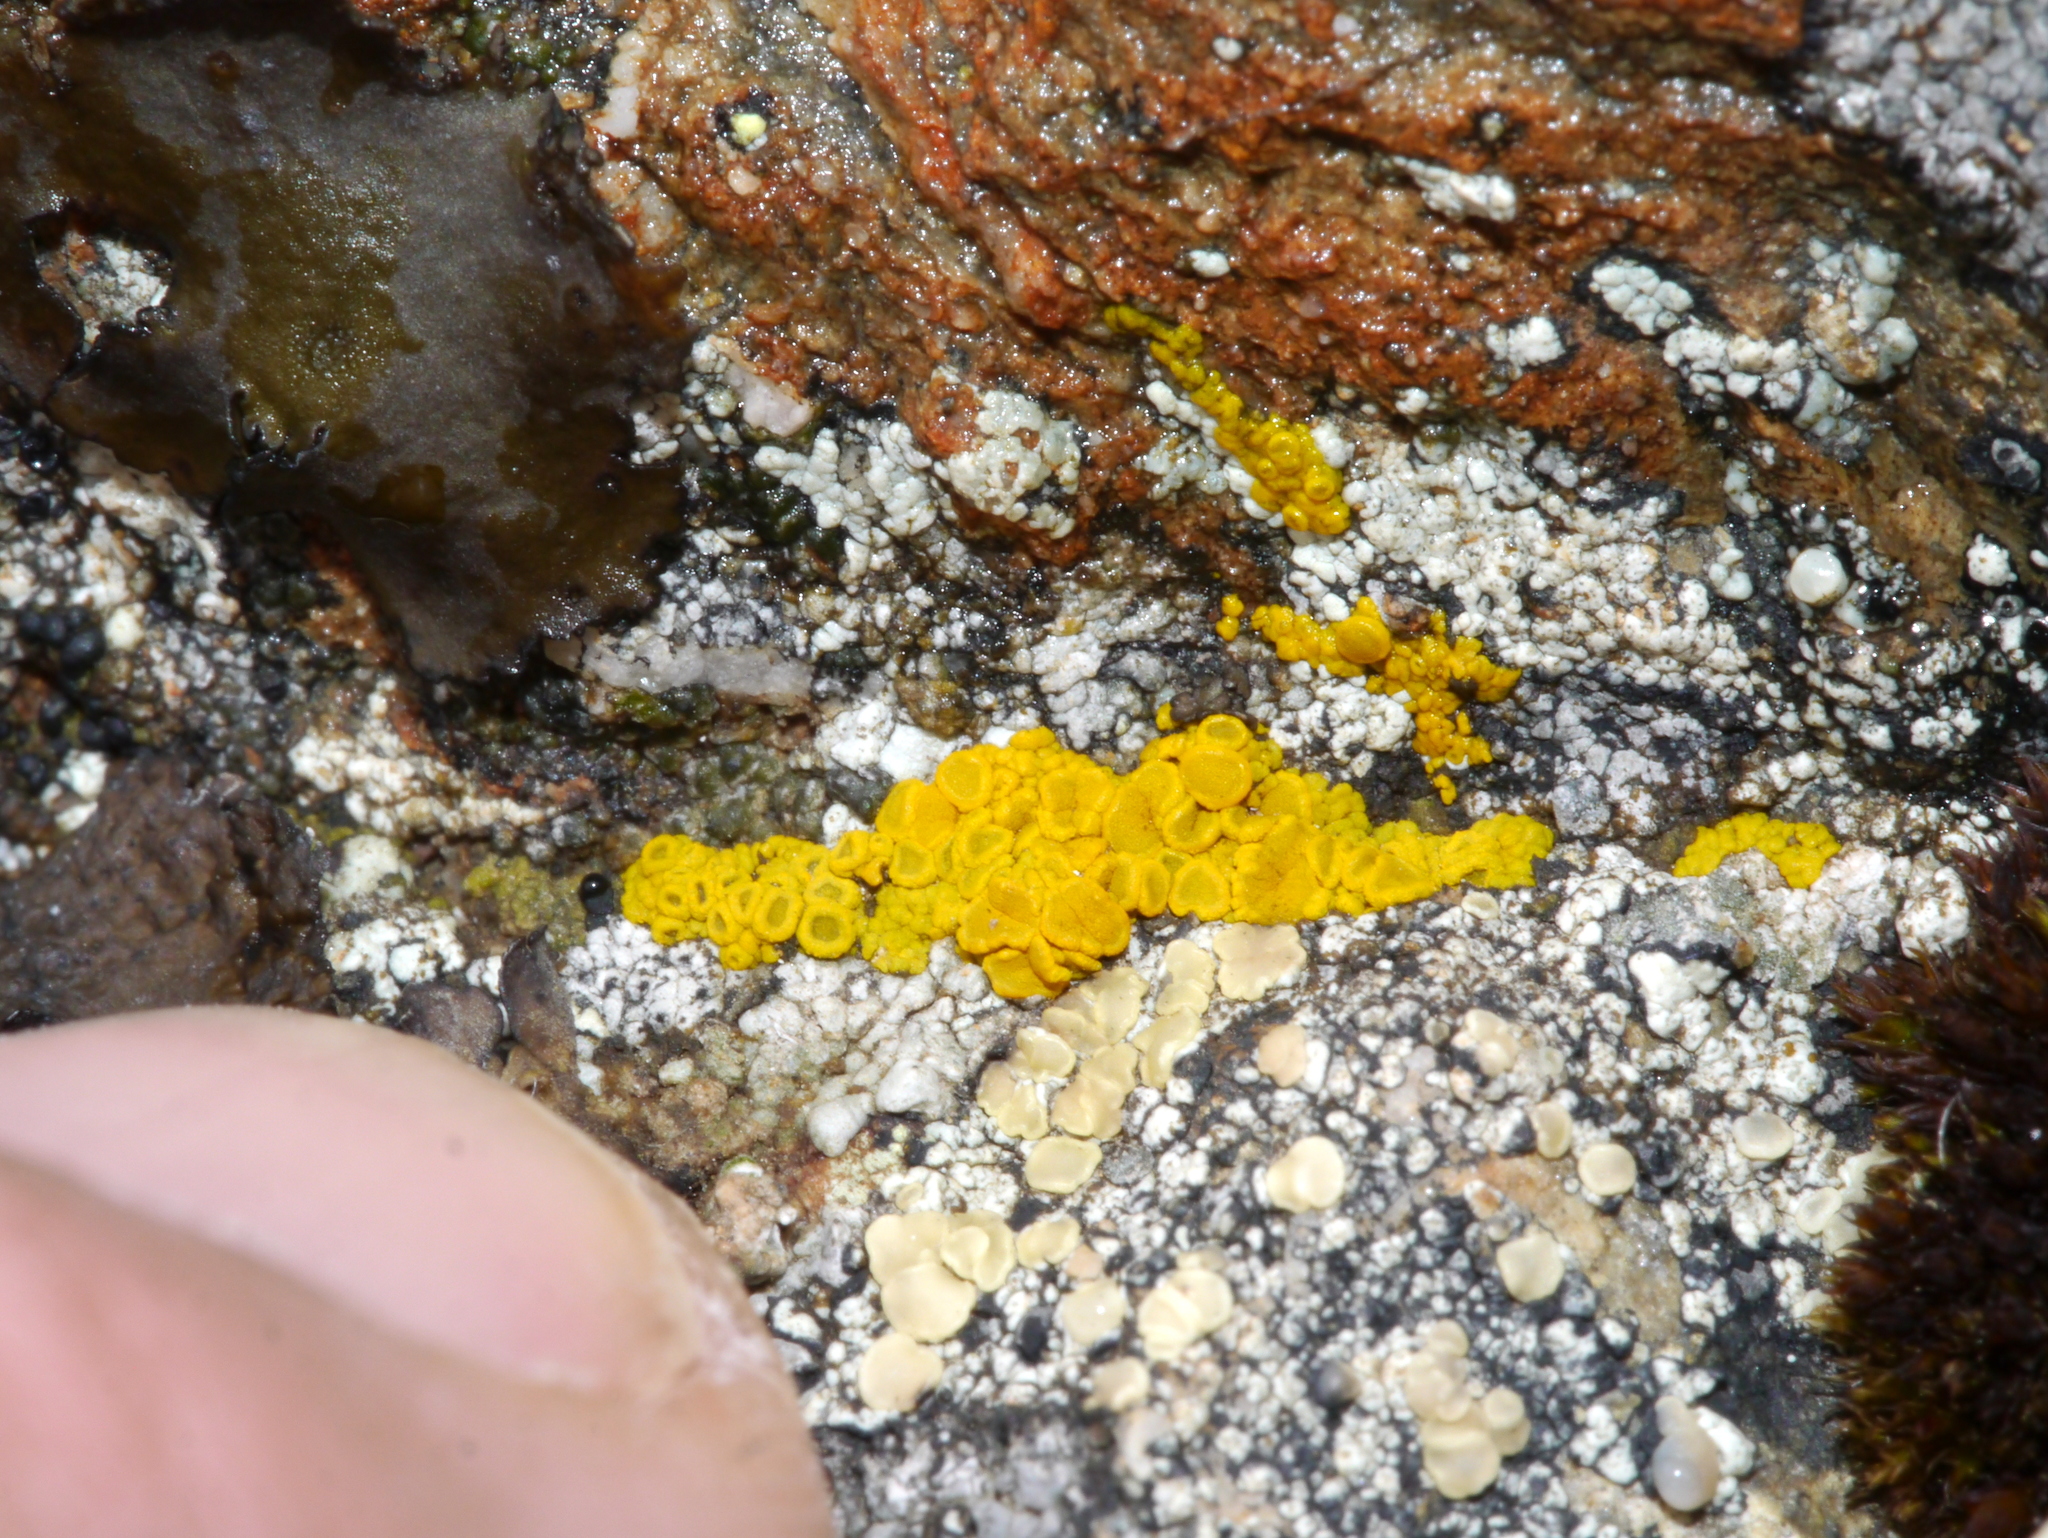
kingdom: Fungi
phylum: Ascomycota
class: Candelariomycetes
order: Candelariales
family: Candelariaceae
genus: Candelariella
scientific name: Candelariella aurella
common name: Hidden goldspeck lichen
